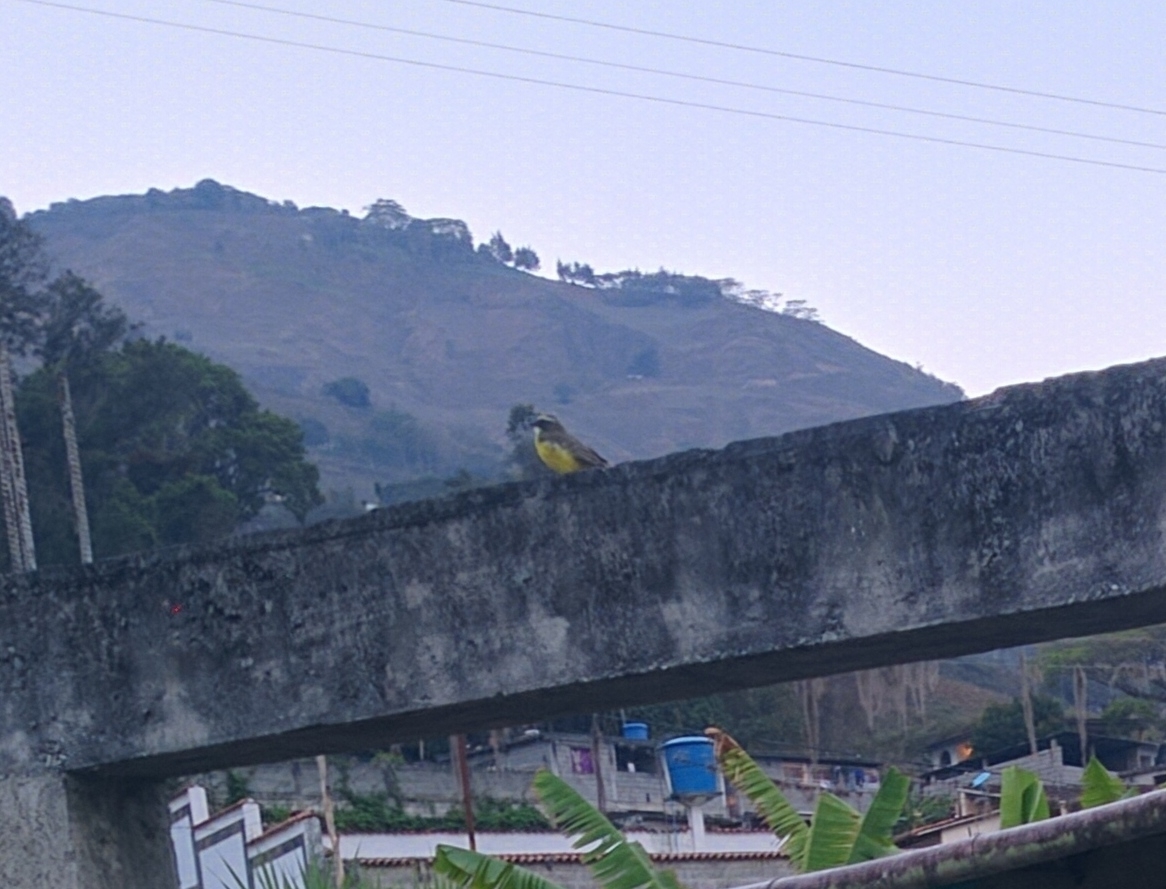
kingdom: Animalia
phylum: Chordata
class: Aves
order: Passeriformes
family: Tyrannidae
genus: Myiozetetes
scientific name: Myiozetetes similis
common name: Social flycatcher
